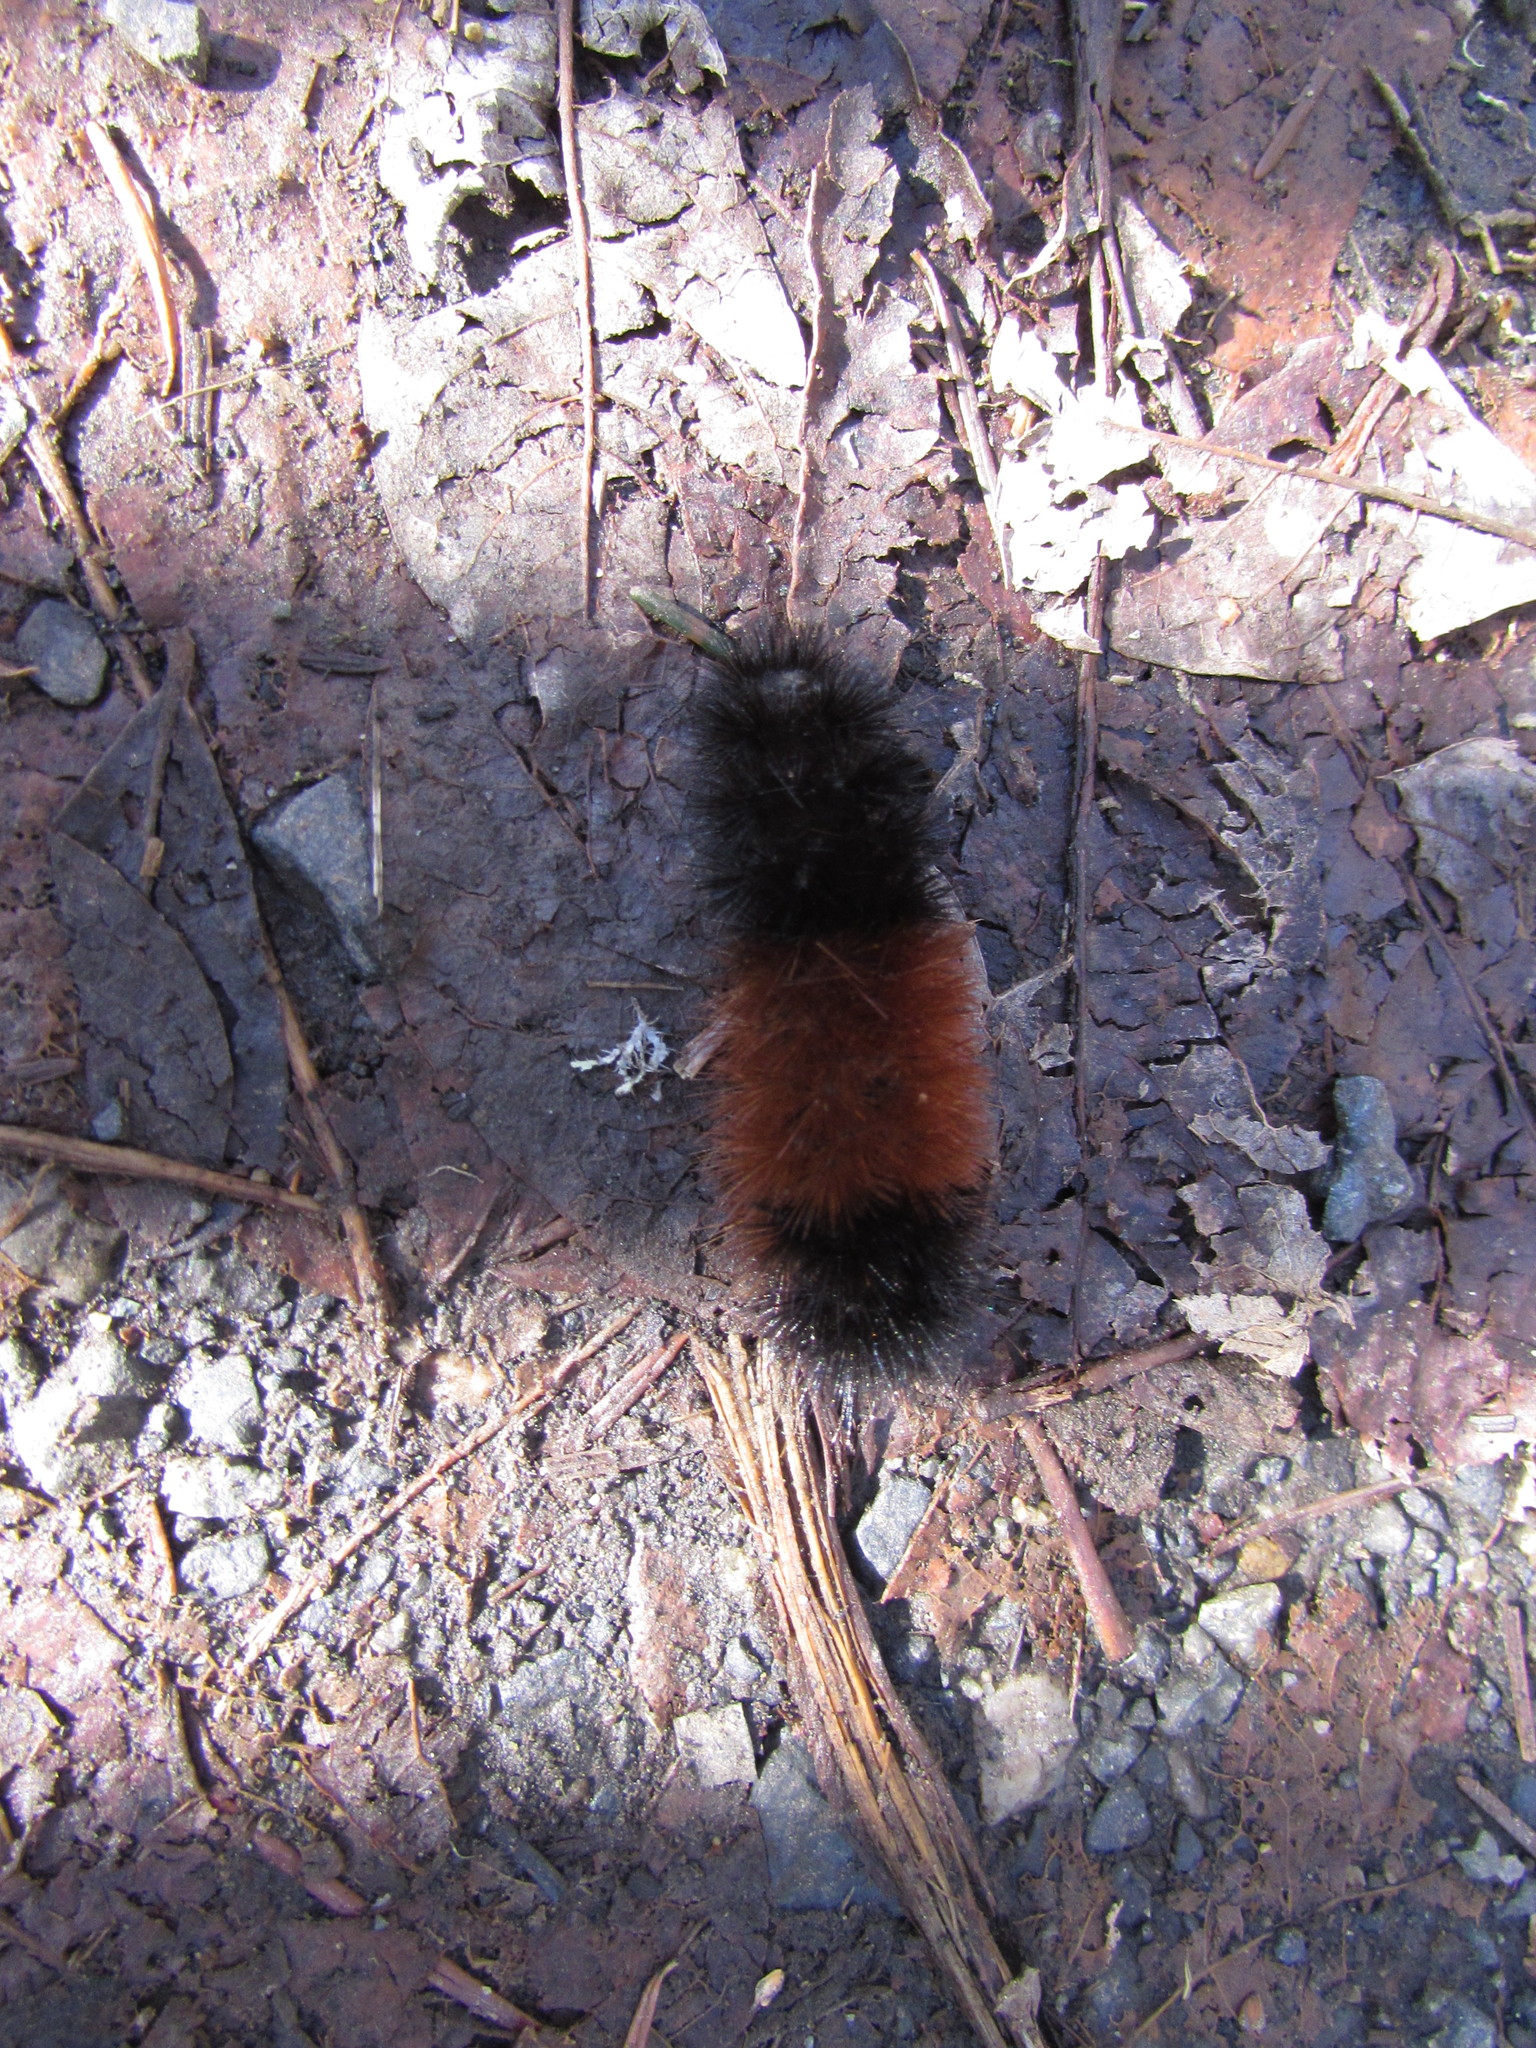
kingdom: Animalia
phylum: Arthropoda
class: Insecta
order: Lepidoptera
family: Erebidae
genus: Pyrrharctia
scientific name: Pyrrharctia isabella
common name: Isabella tiger moth
